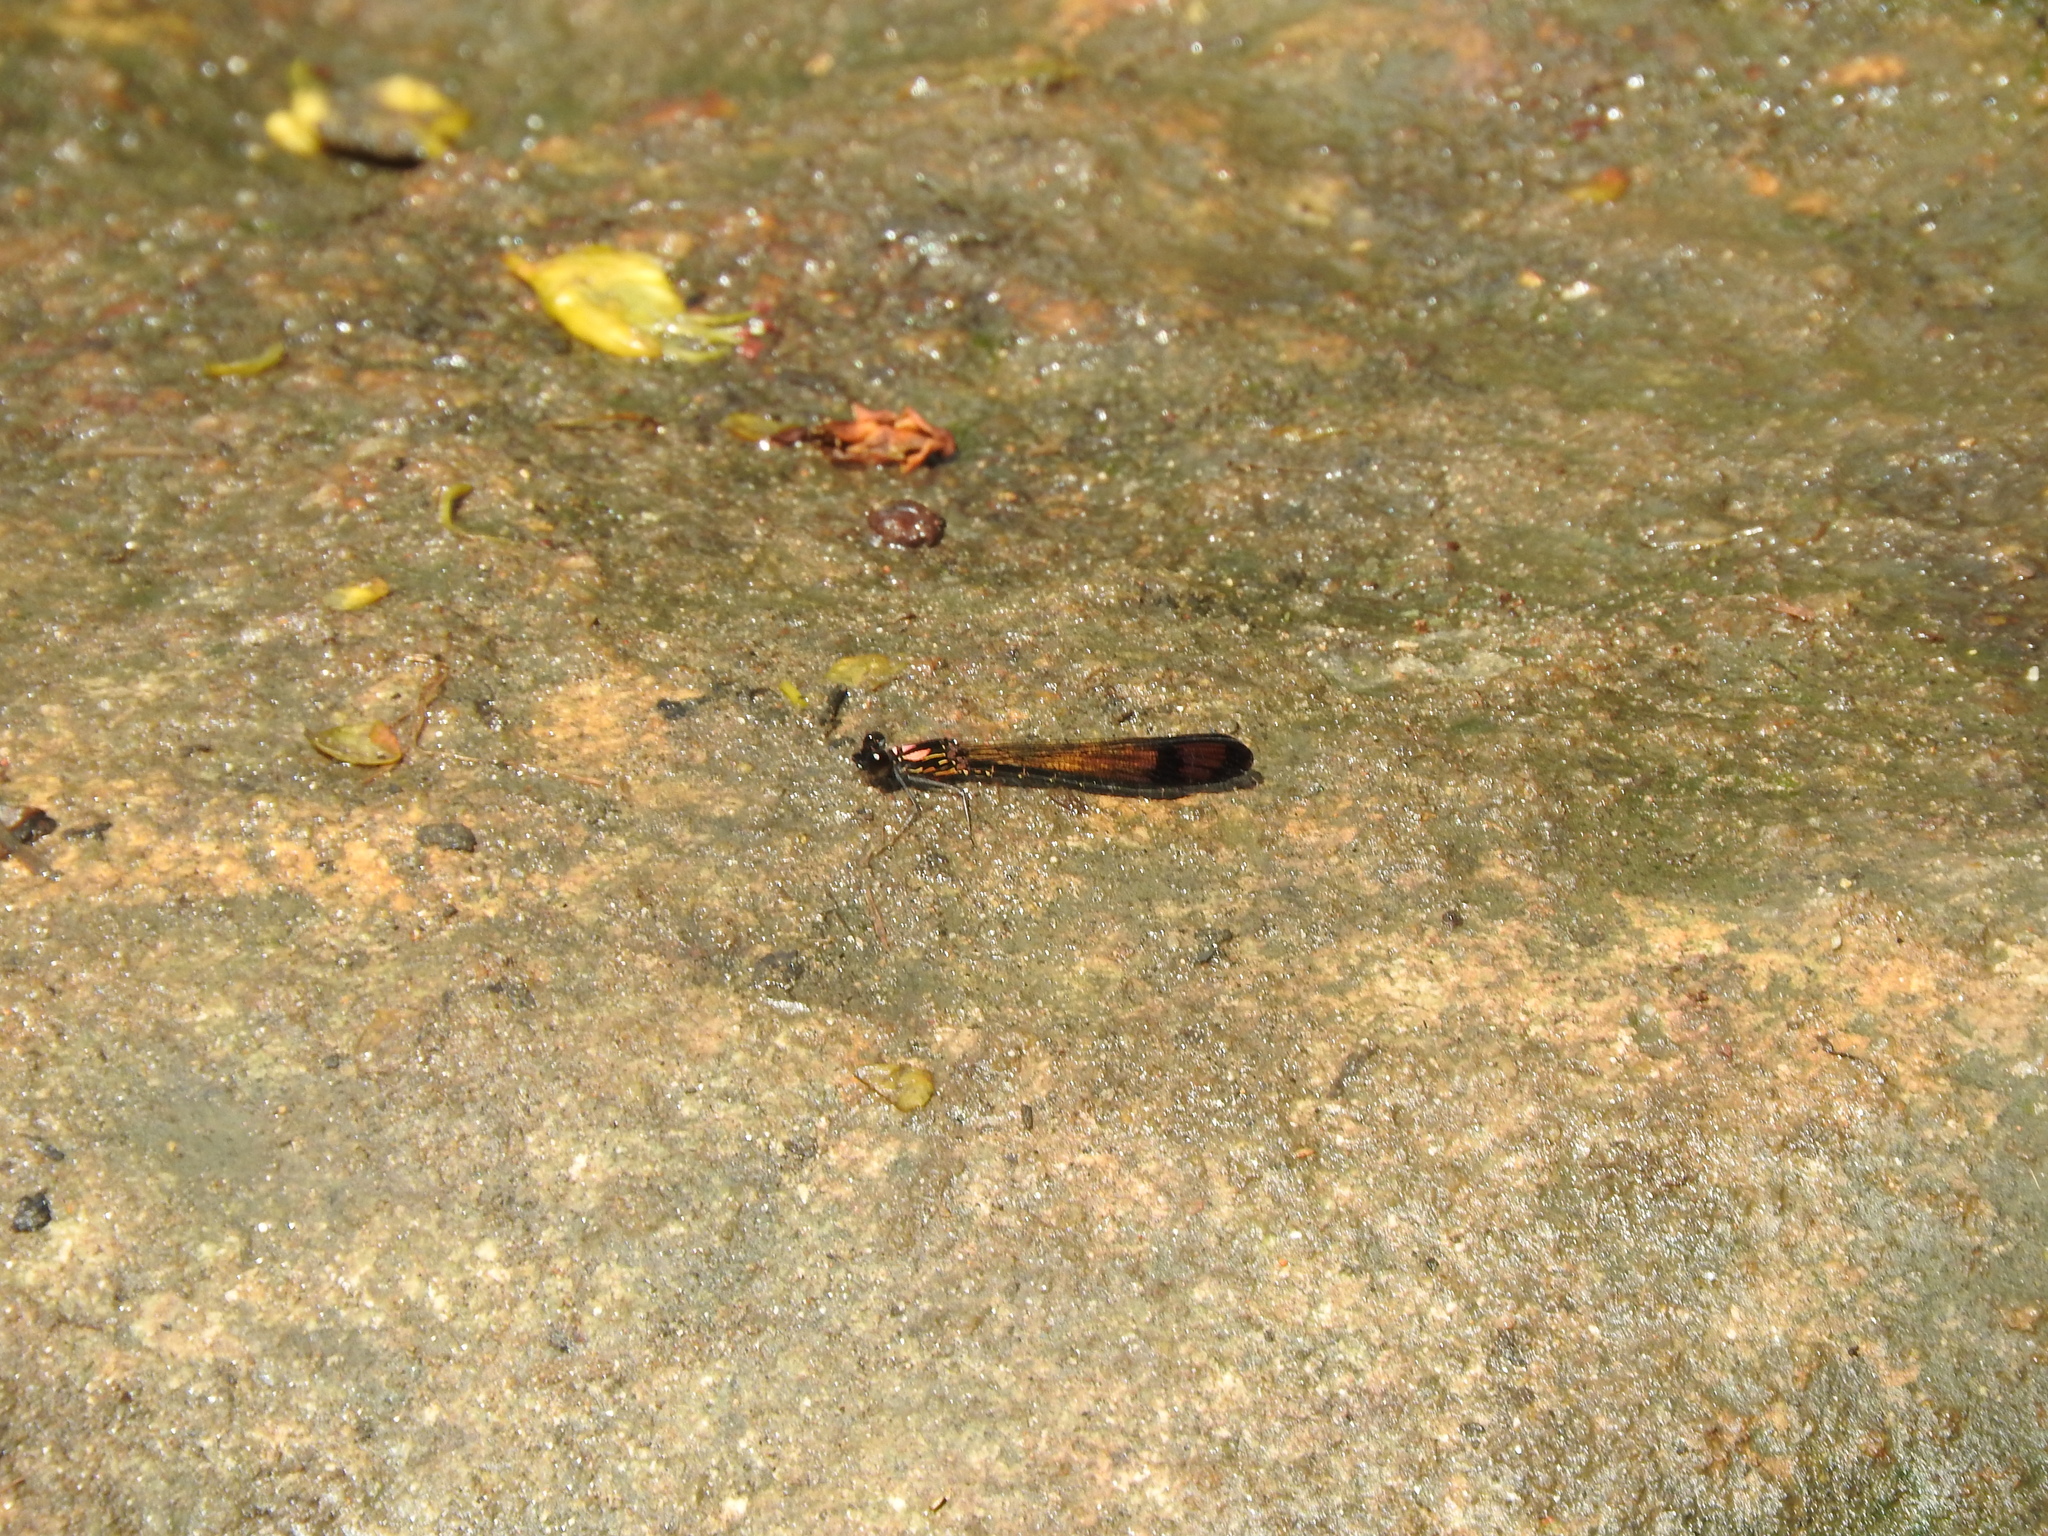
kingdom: Animalia
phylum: Arthropoda
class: Insecta
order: Odonata
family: Chlorocyphidae
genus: Heliocypha
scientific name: Heliocypha bisignata
